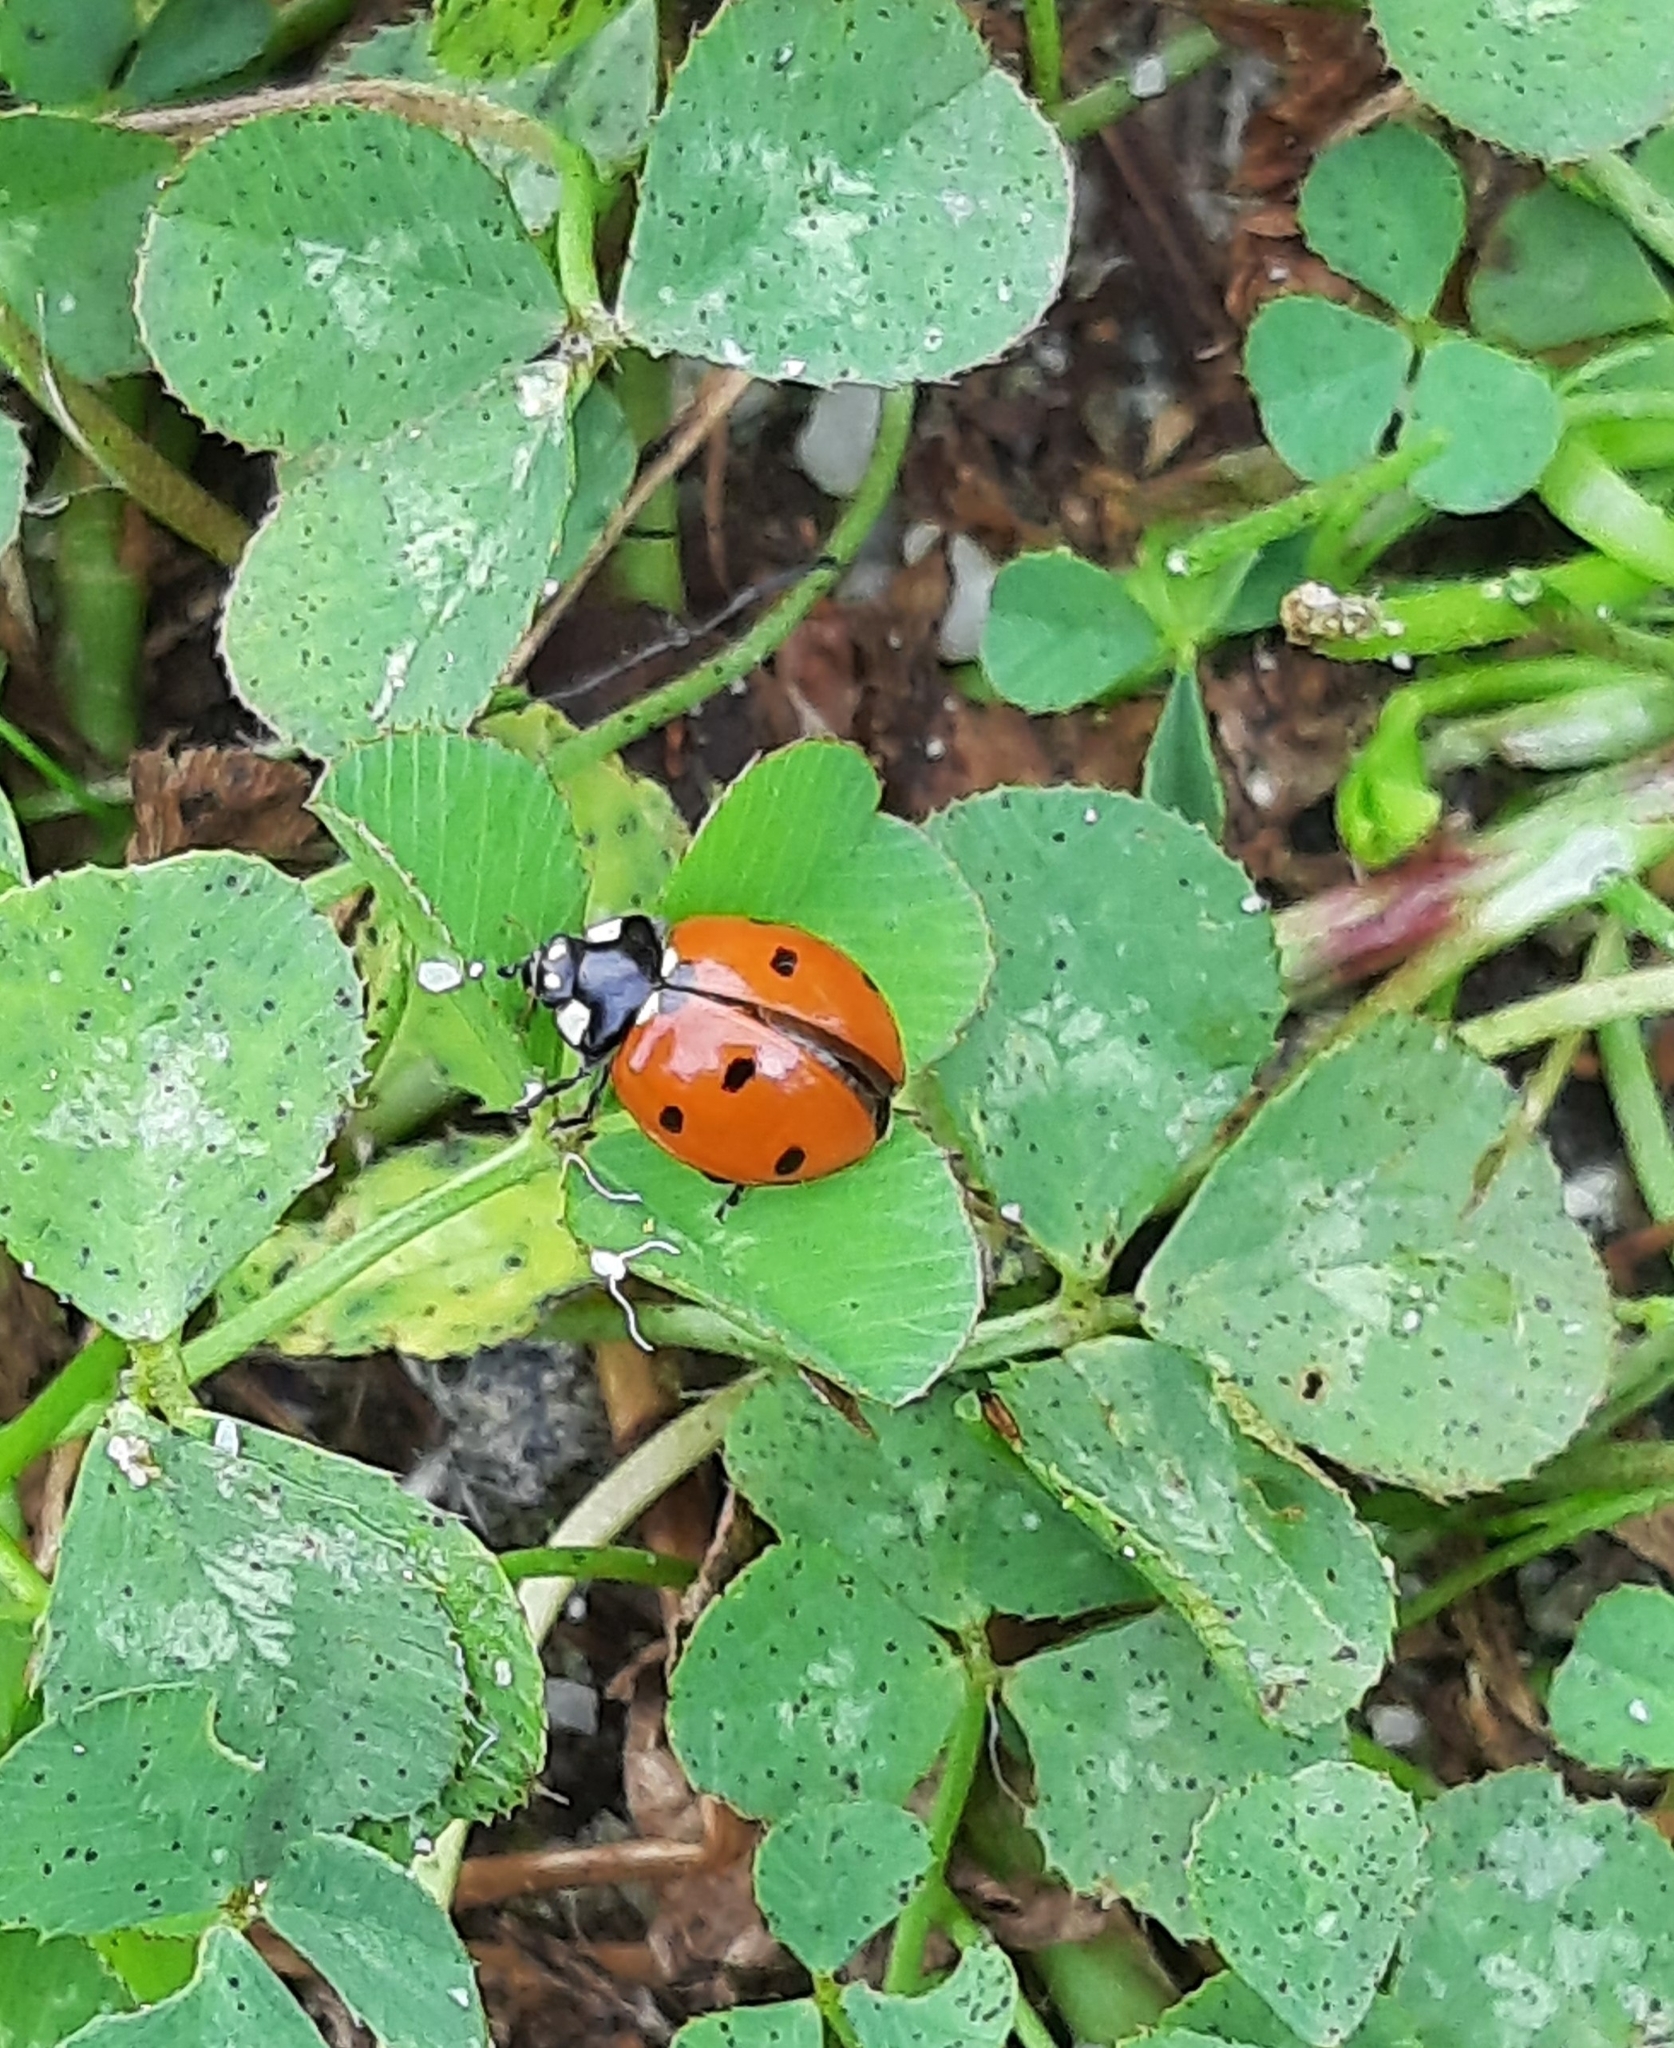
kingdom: Animalia
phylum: Arthropoda
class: Insecta
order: Coleoptera
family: Coccinellidae
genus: Coccinella
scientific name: Coccinella septempunctata
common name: Sevenspotted lady beetle
